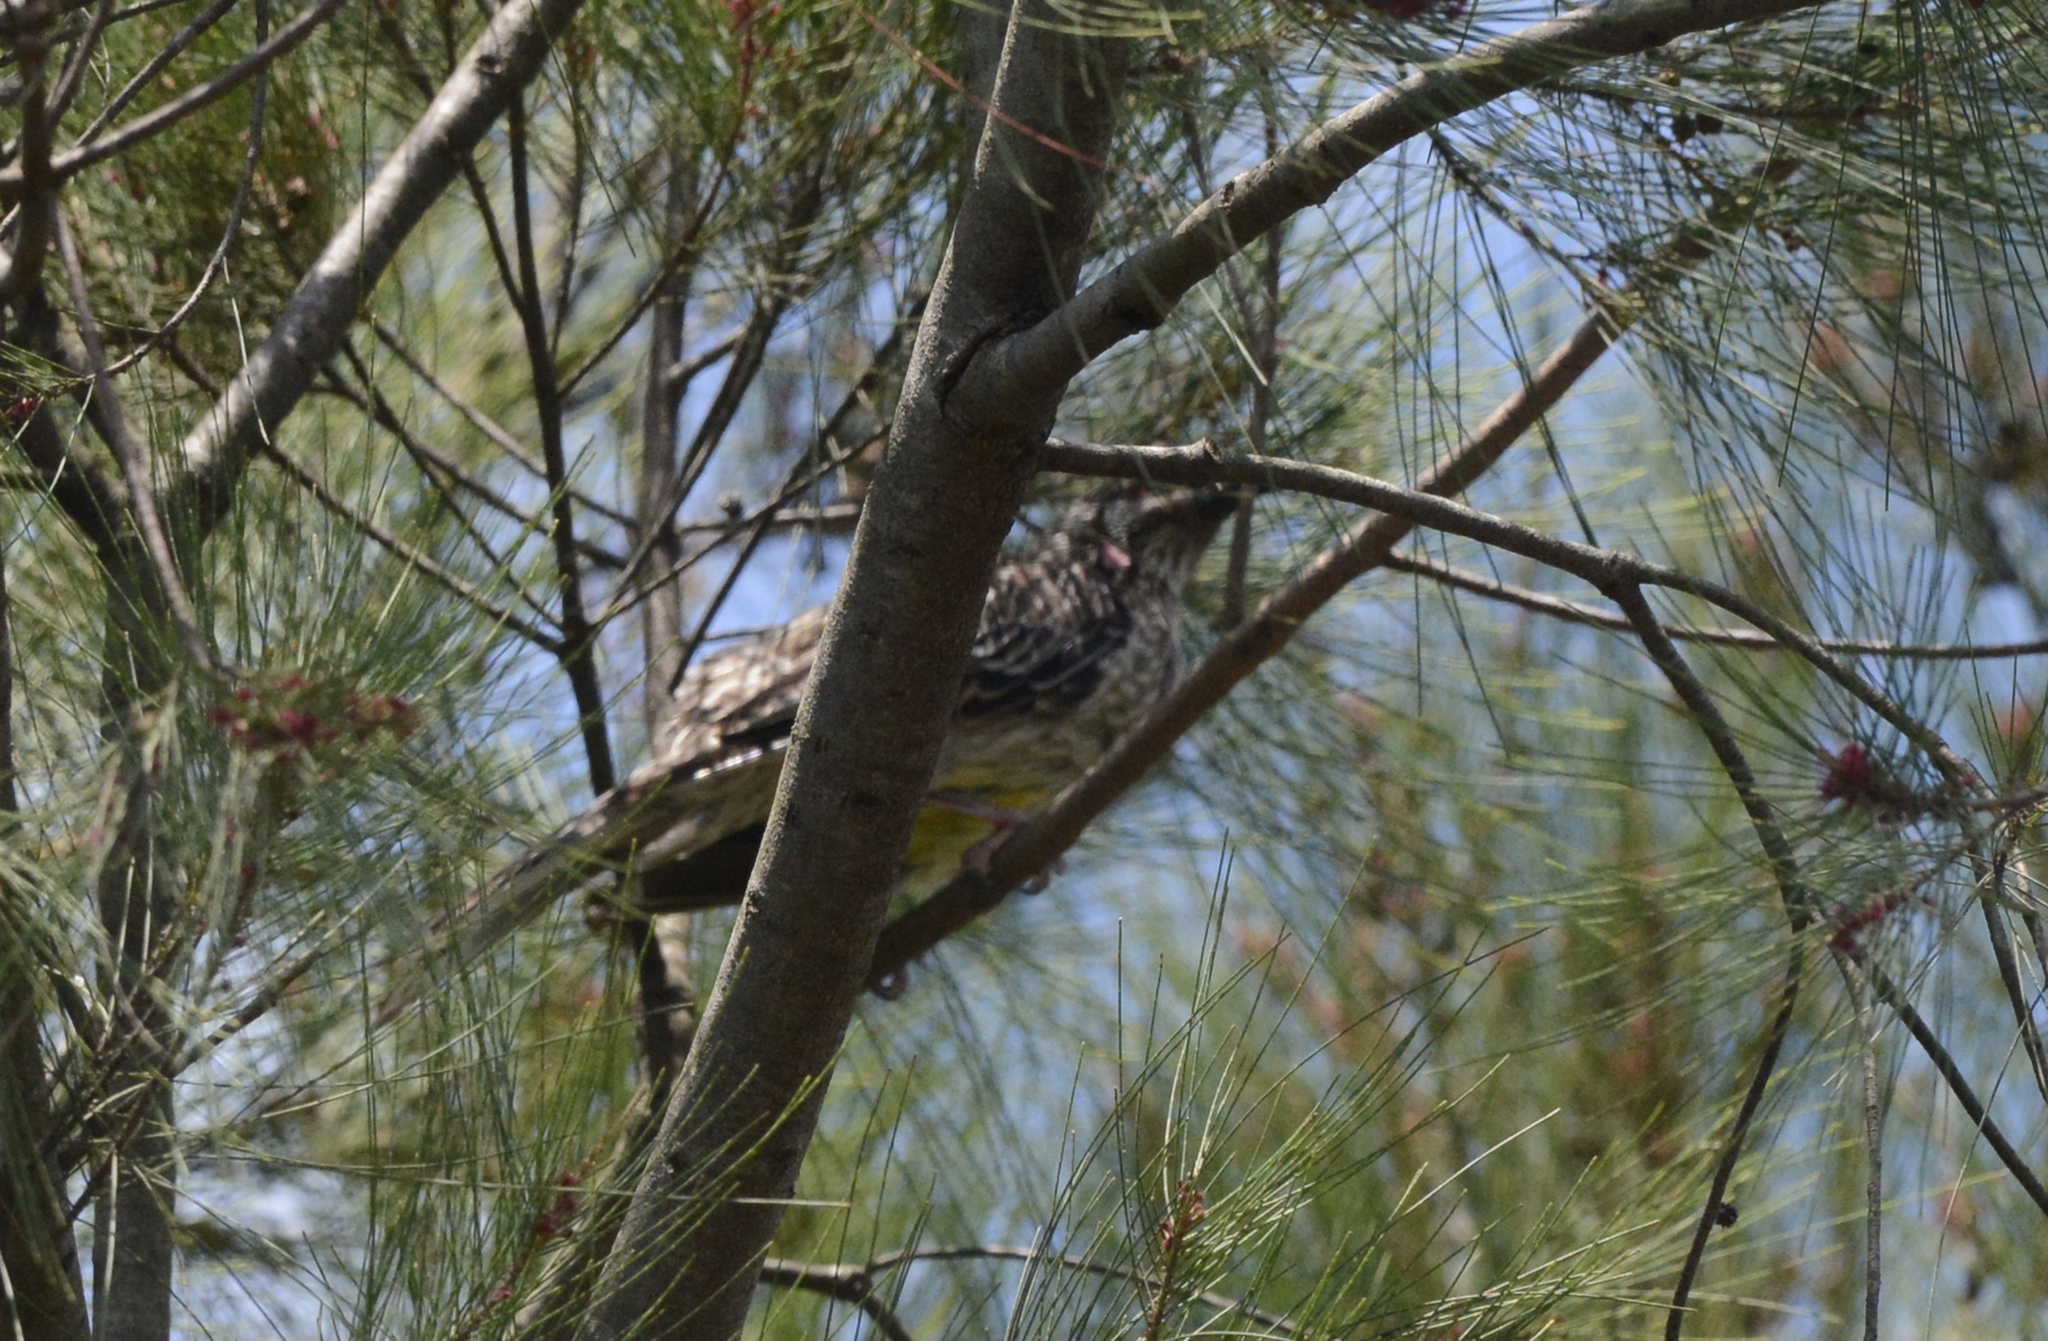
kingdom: Animalia
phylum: Chordata
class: Aves
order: Passeriformes
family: Meliphagidae
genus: Anthochaera
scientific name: Anthochaera carunculata
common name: Red wattlebird
